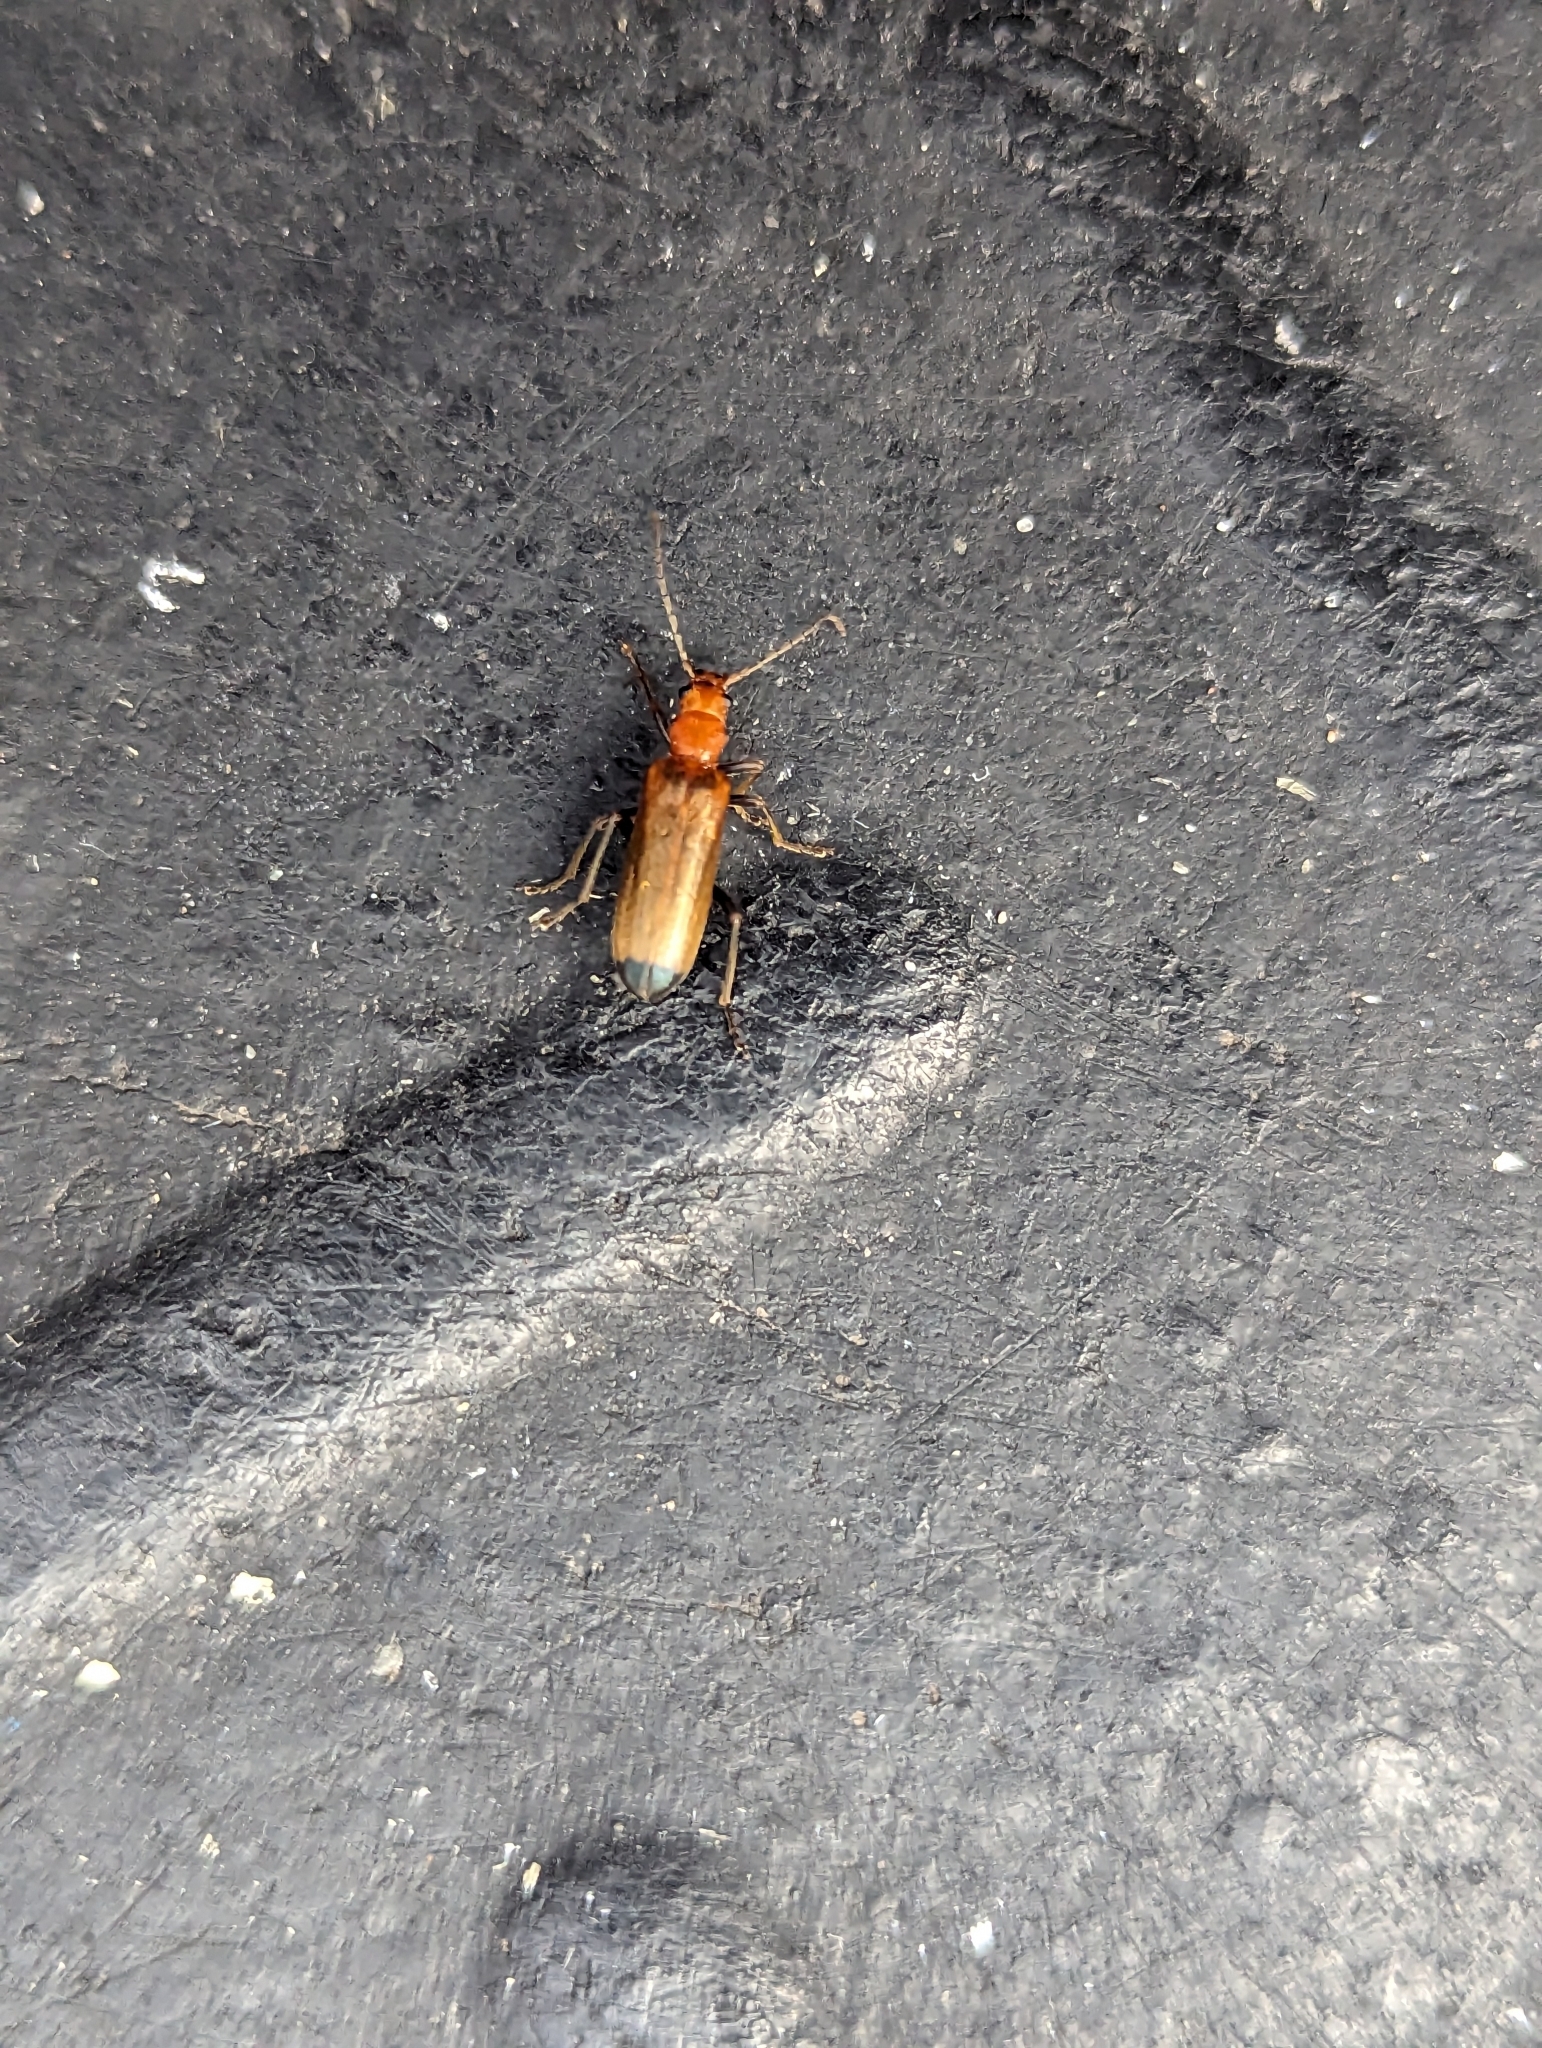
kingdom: Animalia
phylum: Arthropoda
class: Insecta
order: Coleoptera
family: Oedemeridae
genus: Nacerdes
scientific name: Nacerdes melanura
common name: Wharf borer
